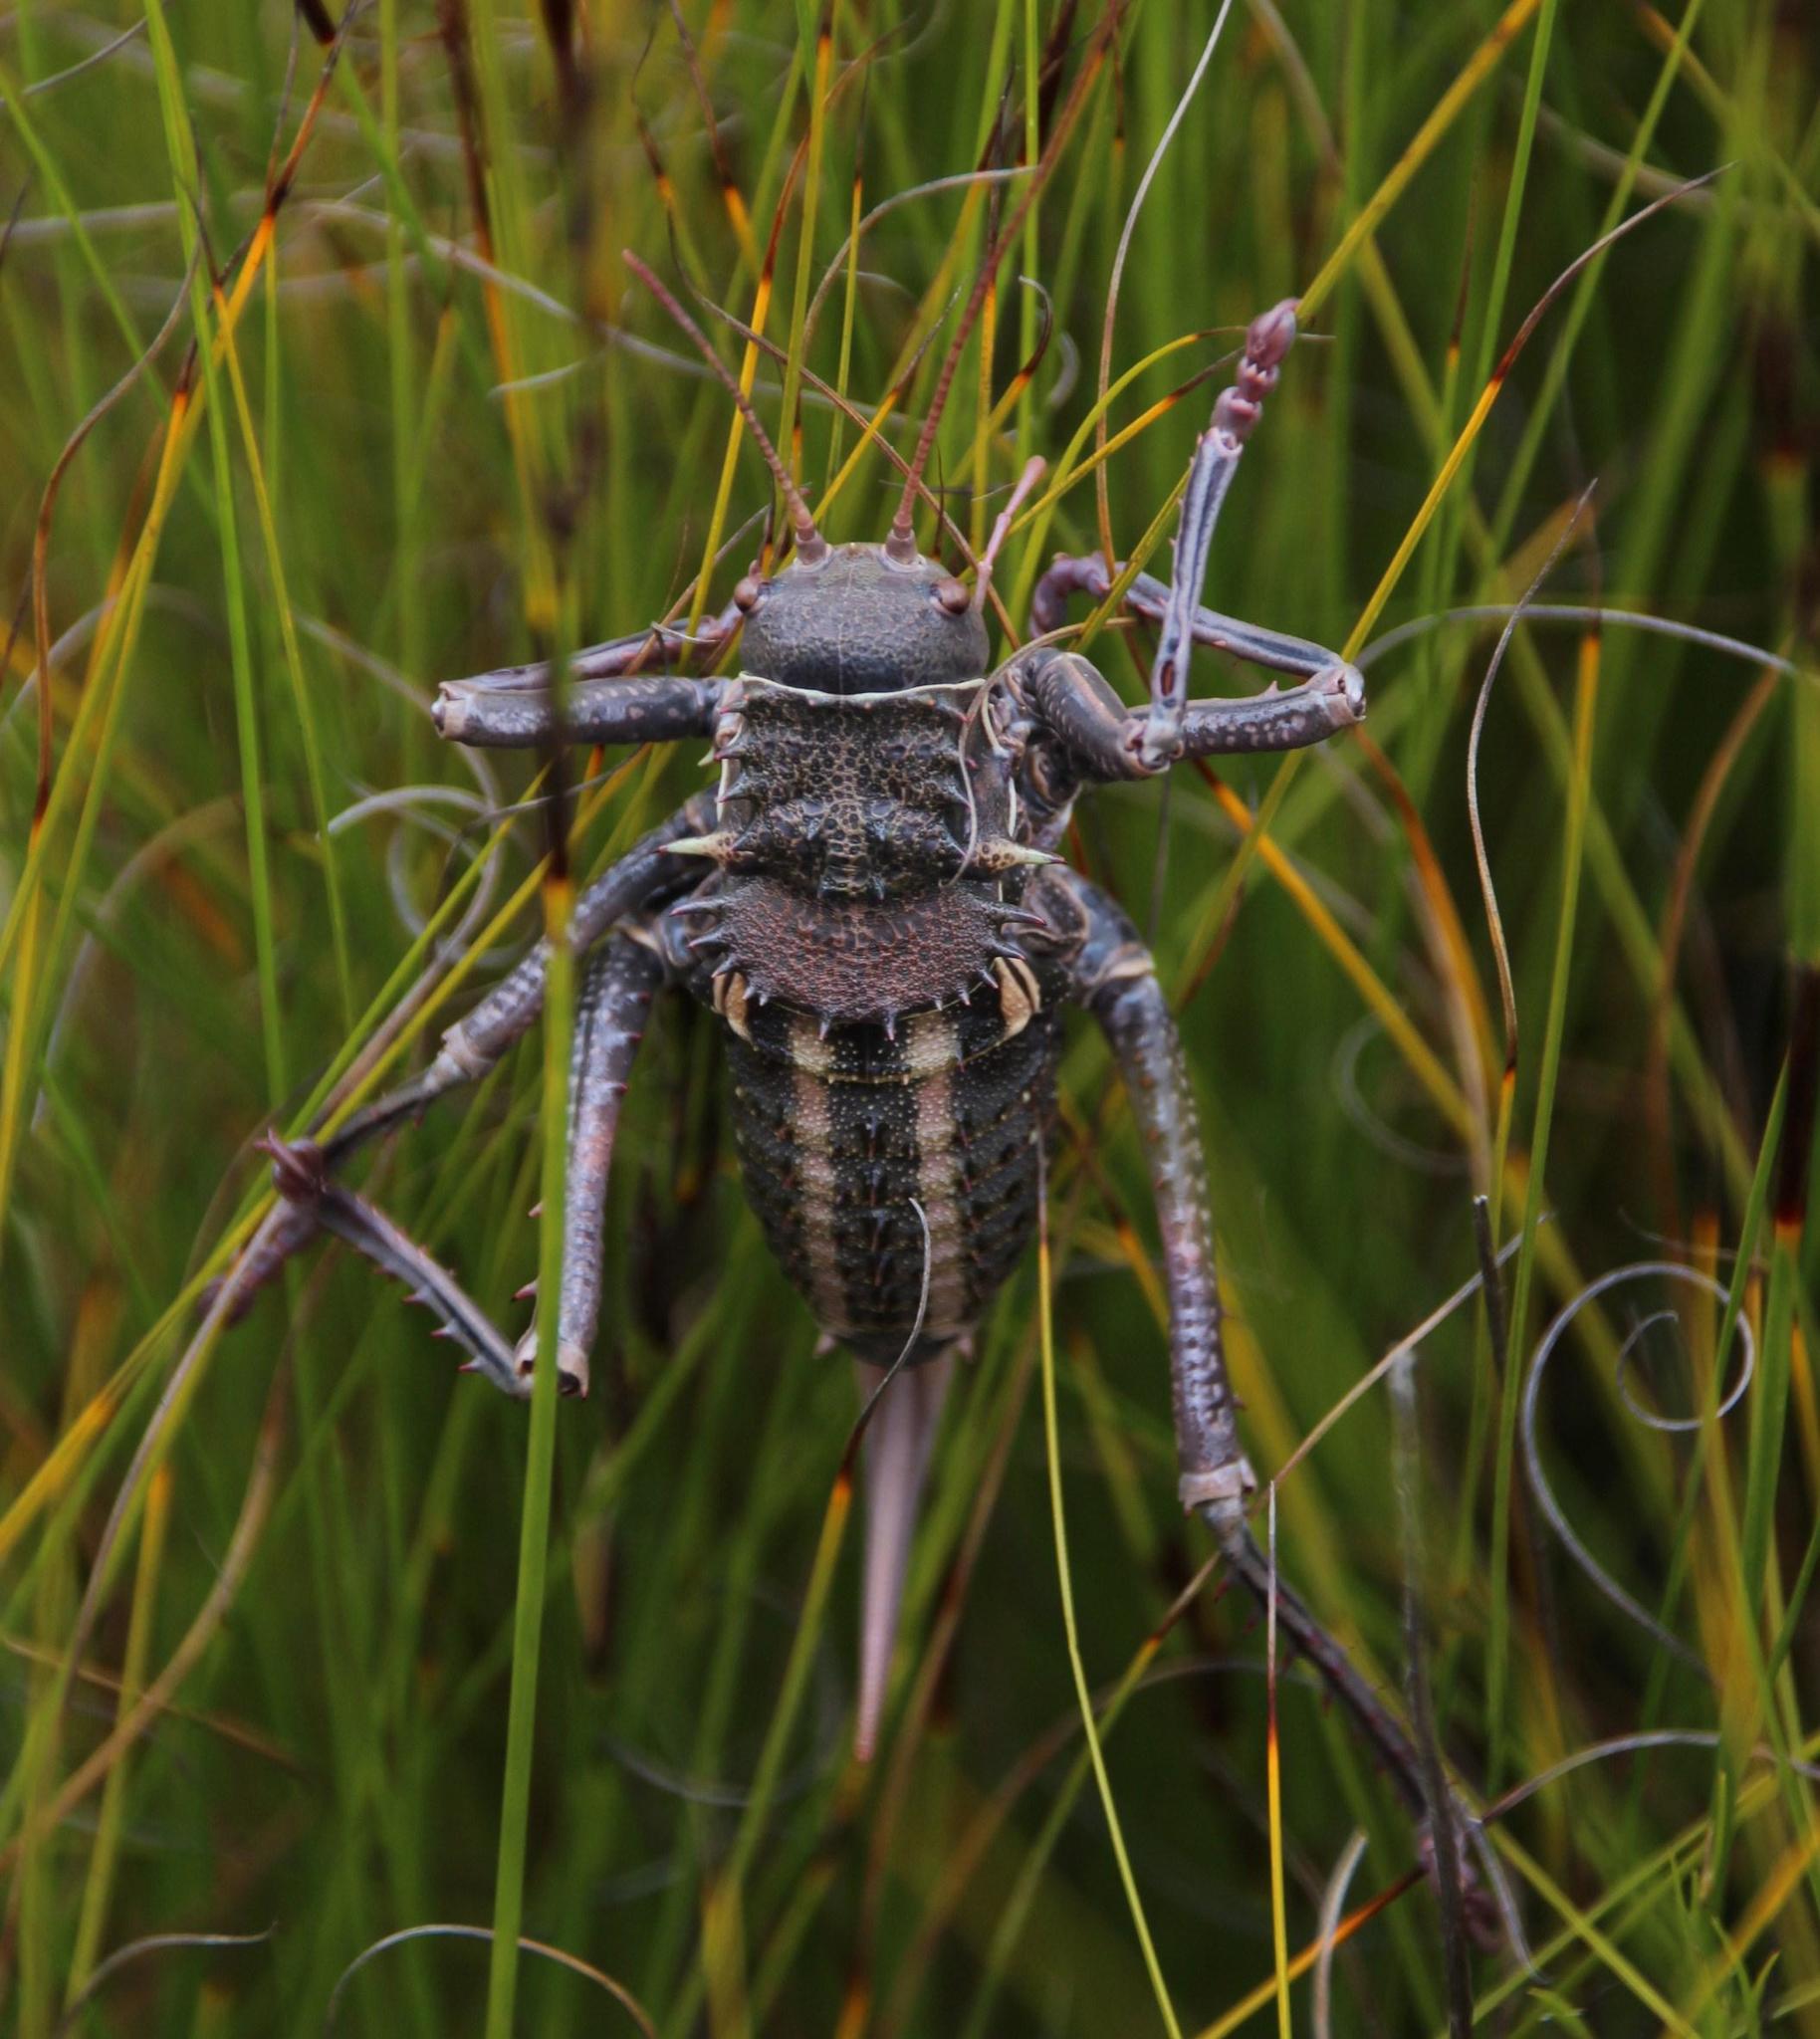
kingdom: Animalia
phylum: Arthropoda
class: Insecta
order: Orthoptera
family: Tettigoniidae
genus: Hetrodes
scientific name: Hetrodes pupus
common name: Koringkriek
